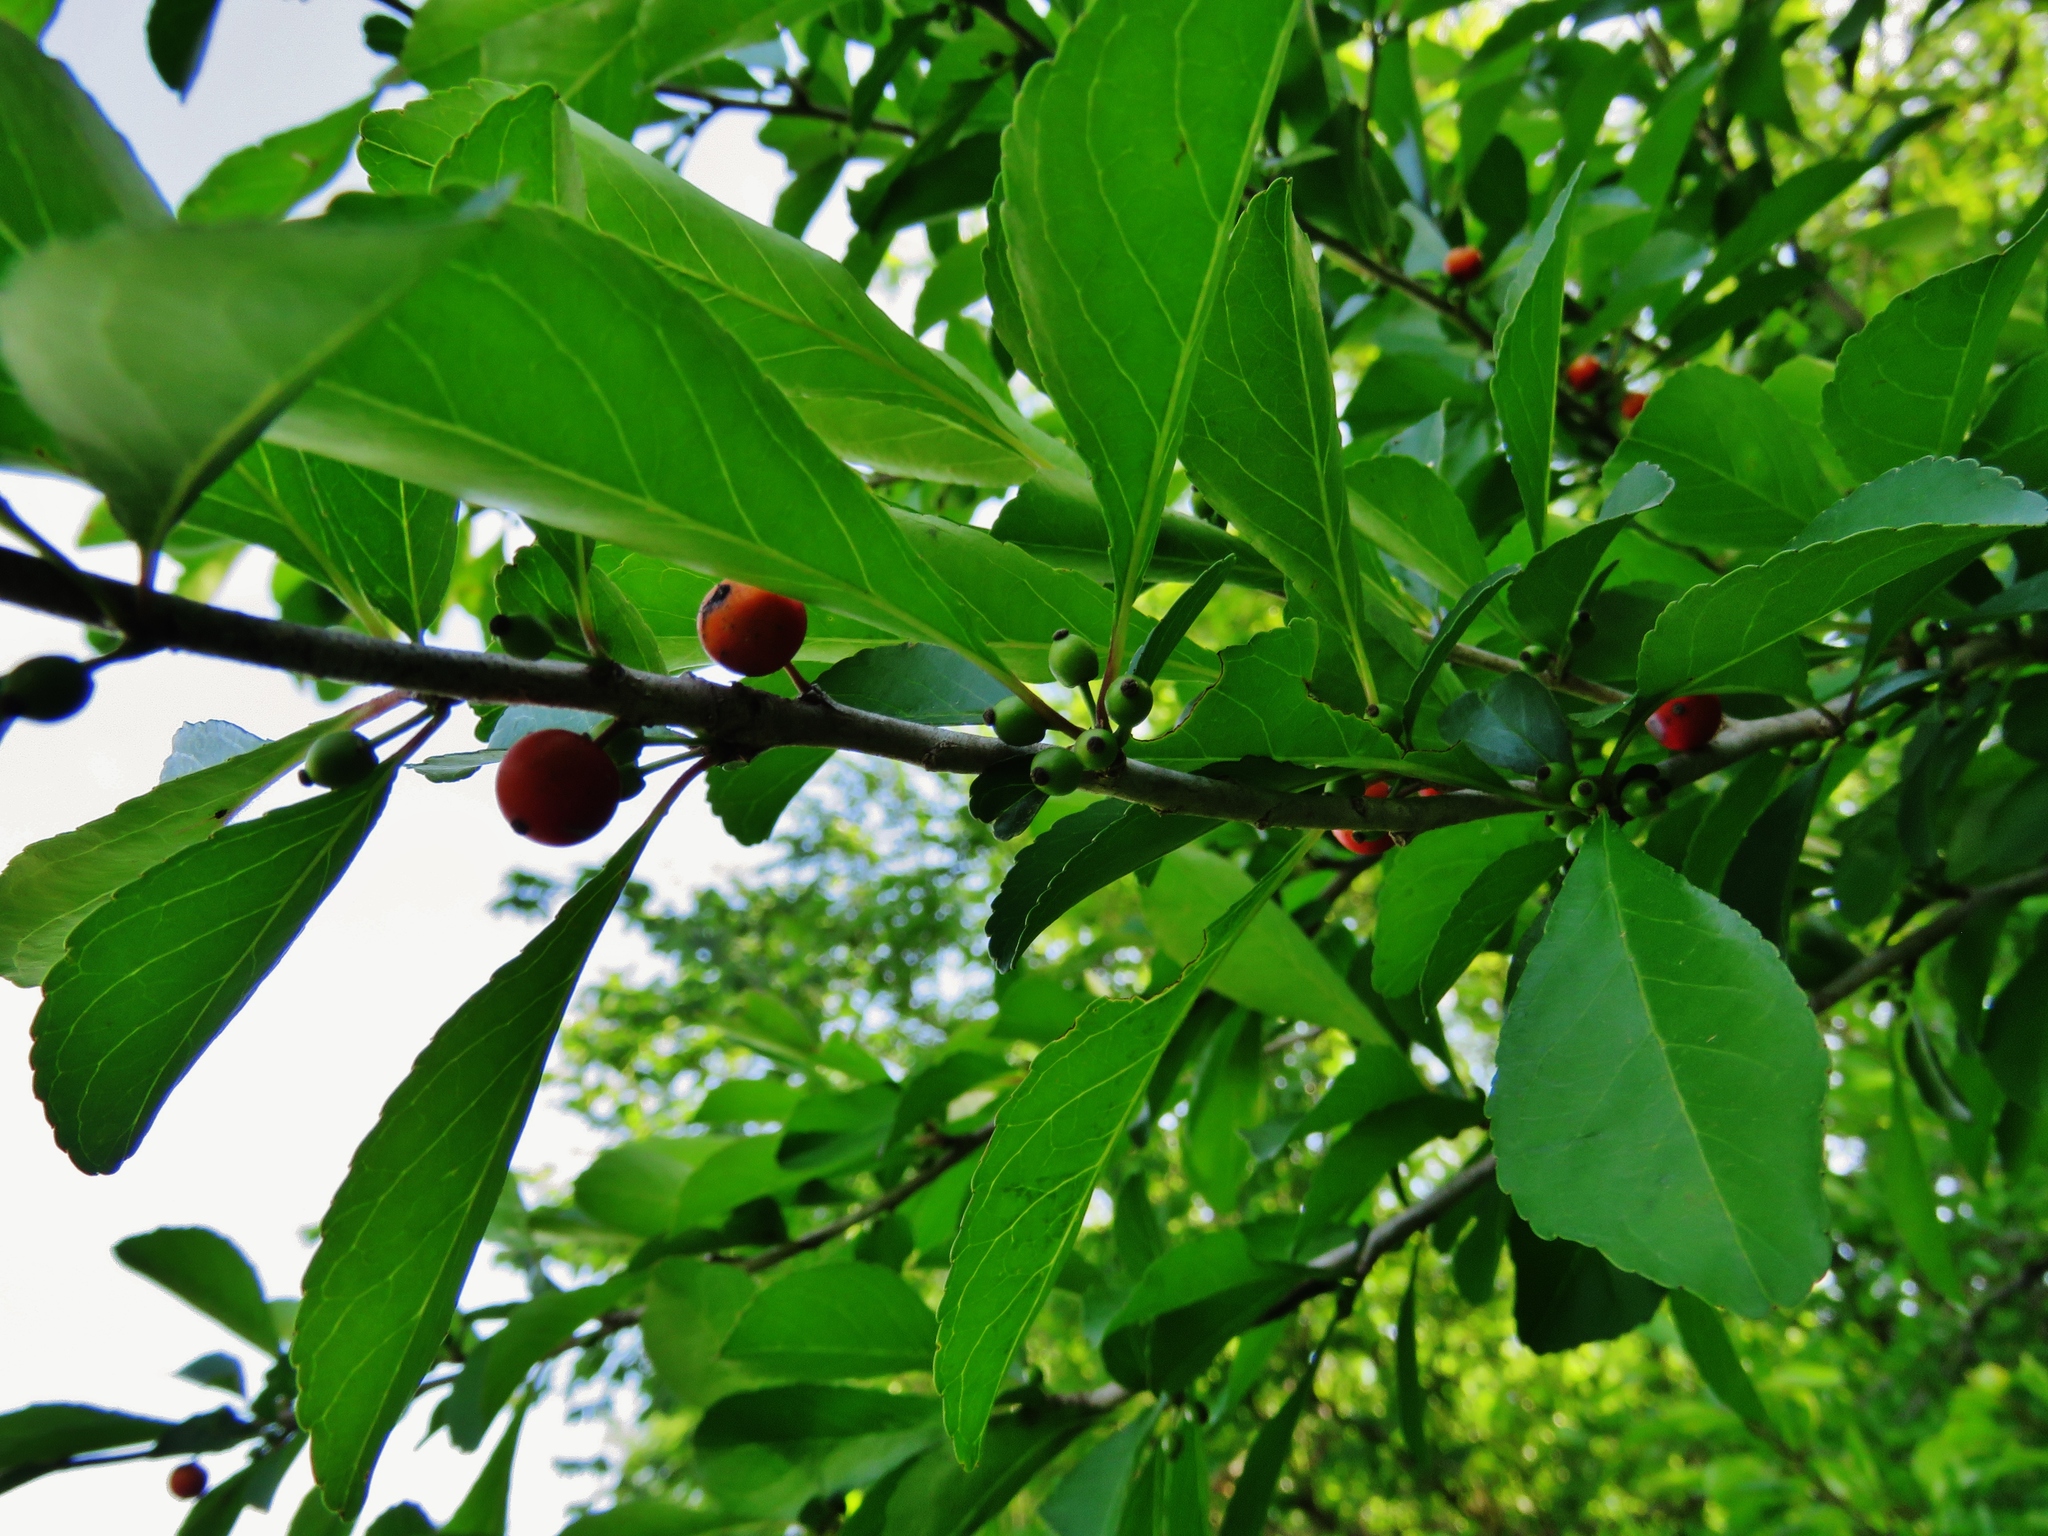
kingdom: Plantae
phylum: Tracheophyta
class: Magnoliopsida
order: Aquifoliales
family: Aquifoliaceae
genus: Ilex
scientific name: Ilex decidua
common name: Possum-haw
